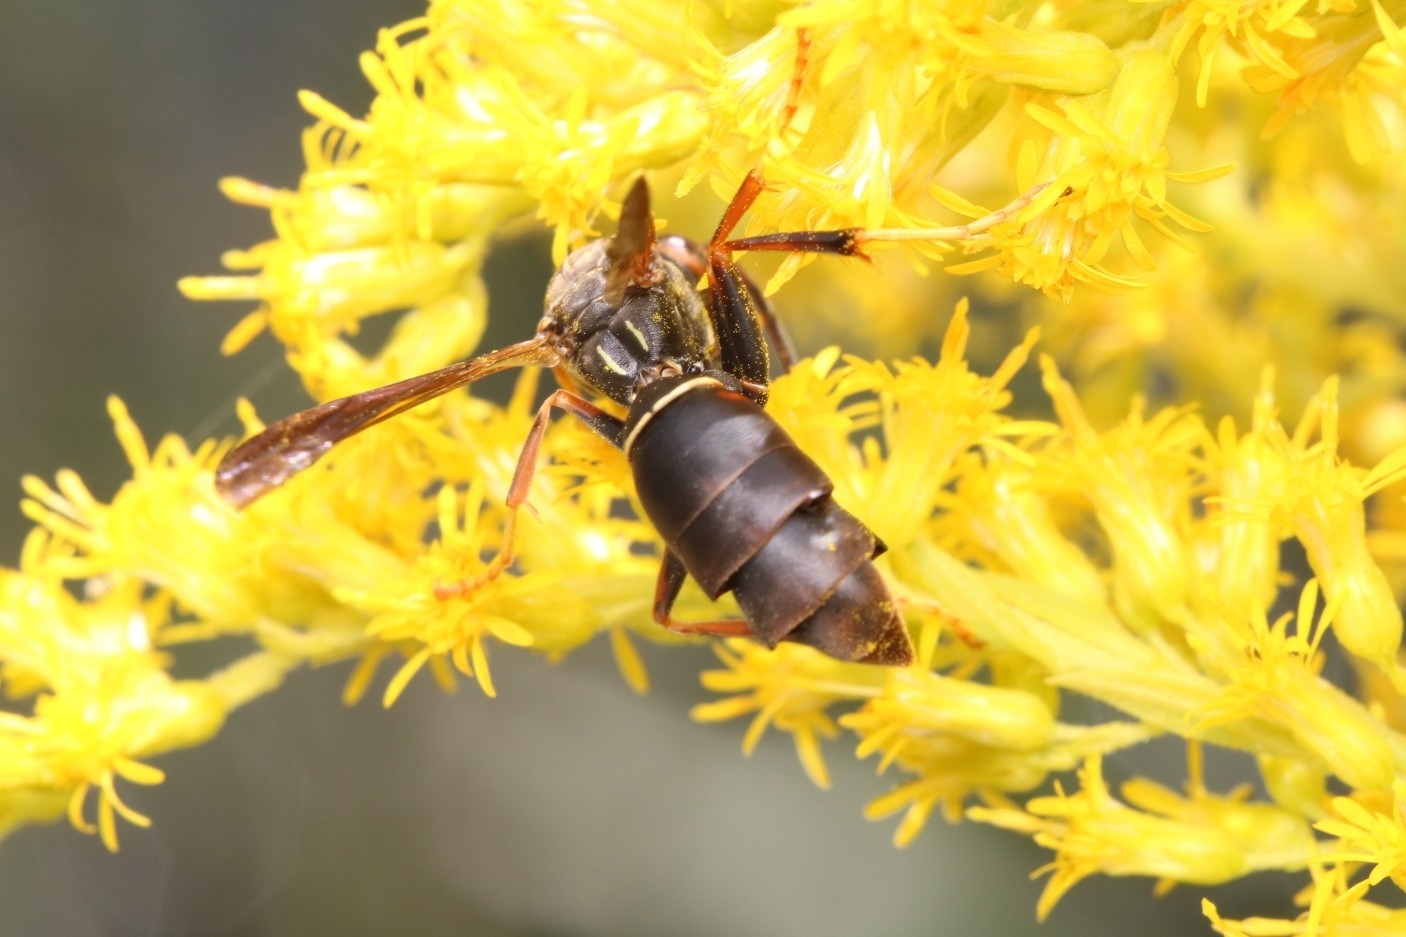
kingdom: Animalia
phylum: Arthropoda
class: Insecta
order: Strepsiptera
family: Xenidae
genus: Xenos
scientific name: Xenos pecki
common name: Twisted wing parasite
